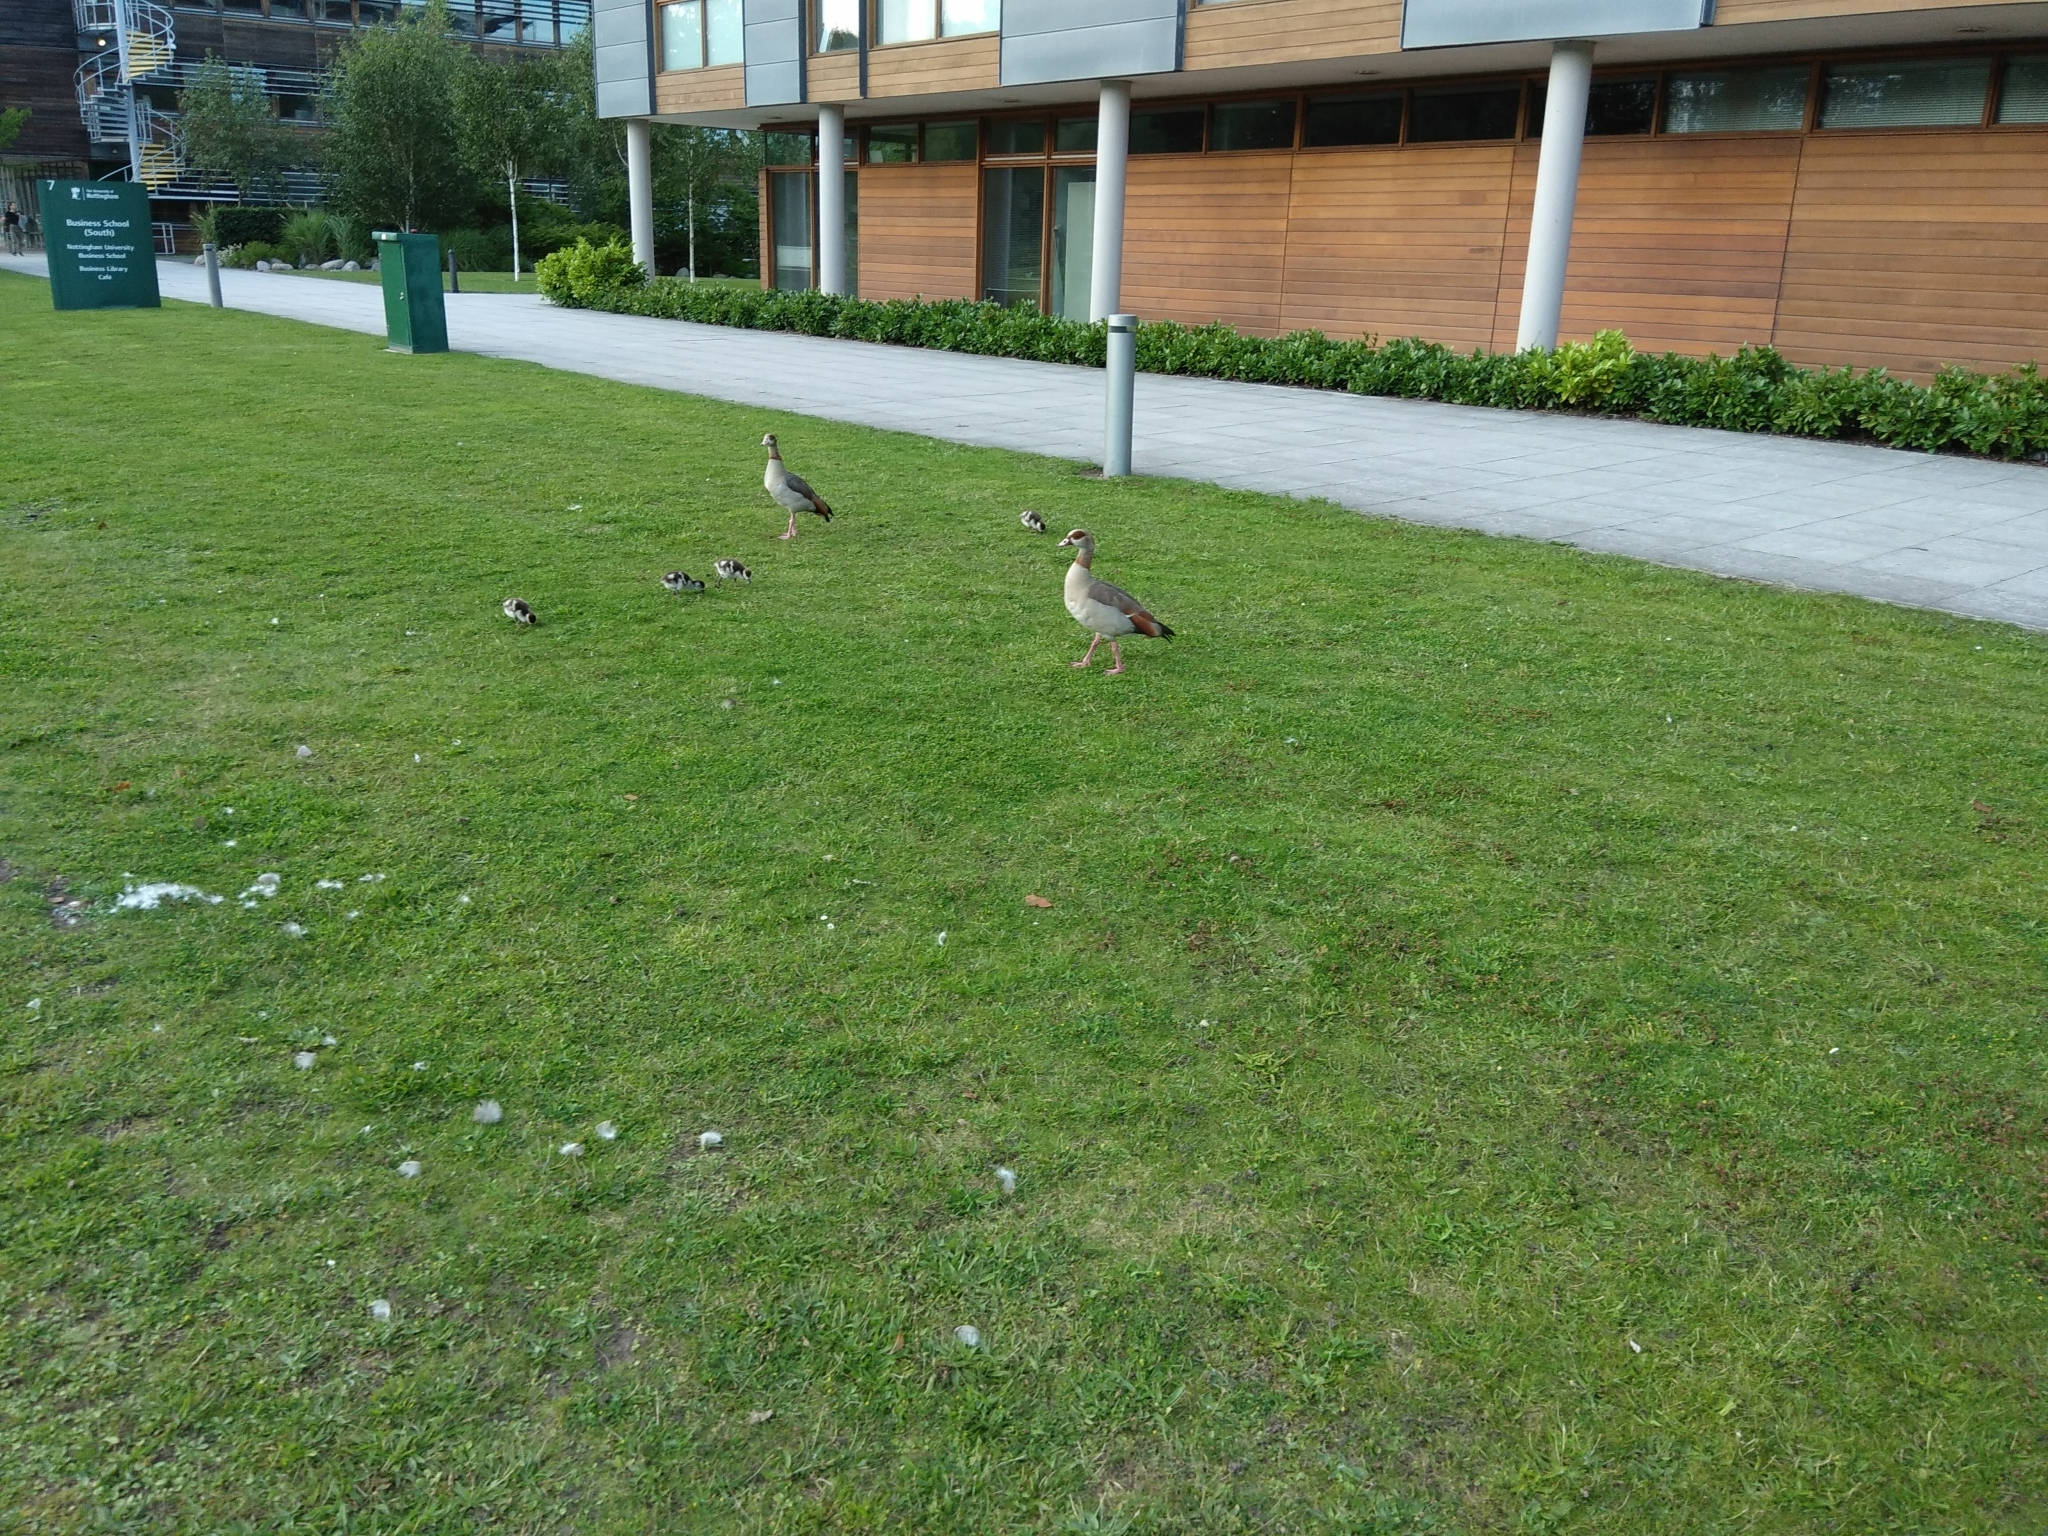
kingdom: Animalia
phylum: Chordata
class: Aves
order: Anseriformes
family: Anatidae
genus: Alopochen
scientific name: Alopochen aegyptiaca
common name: Egyptian goose
